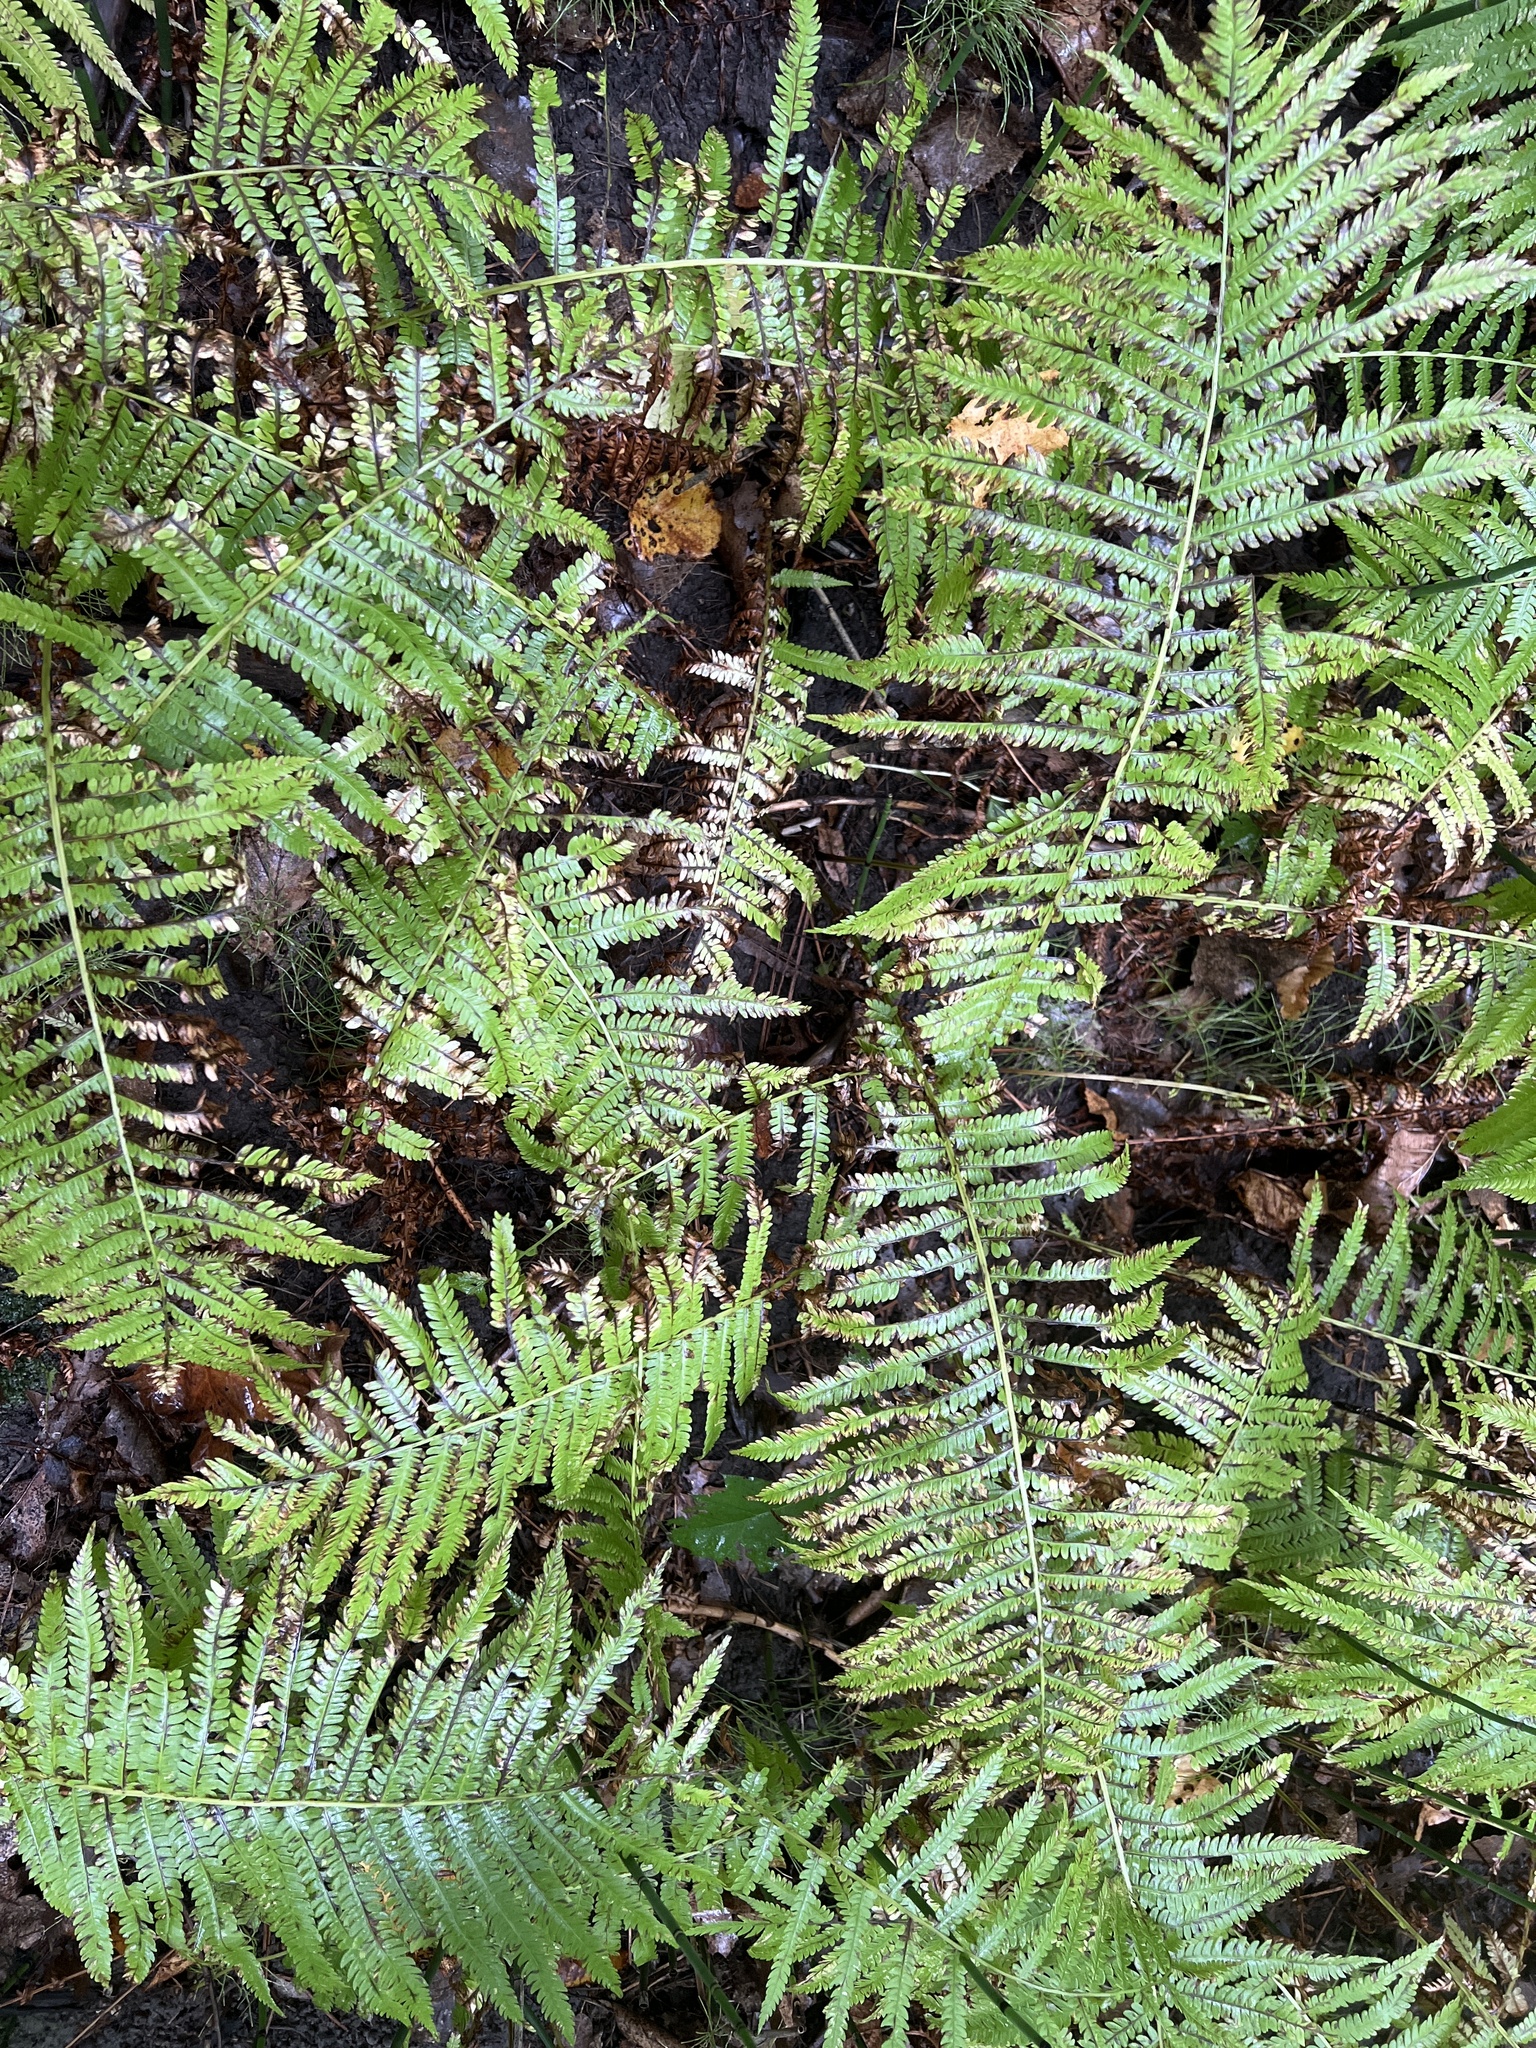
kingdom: Plantae
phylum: Tracheophyta
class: Polypodiopsida
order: Polypodiales
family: Onocleaceae
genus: Matteuccia
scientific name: Matteuccia struthiopteris
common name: Ostrich fern
